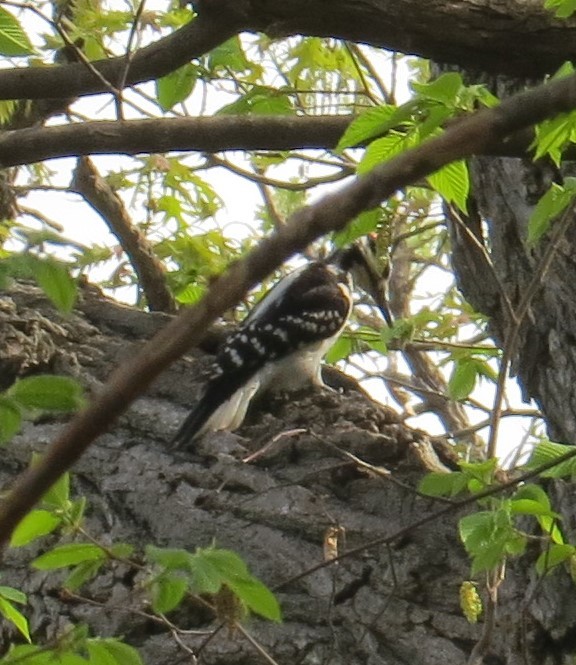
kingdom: Animalia
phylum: Chordata
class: Aves
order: Piciformes
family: Picidae
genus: Leuconotopicus
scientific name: Leuconotopicus villosus
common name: Hairy woodpecker
